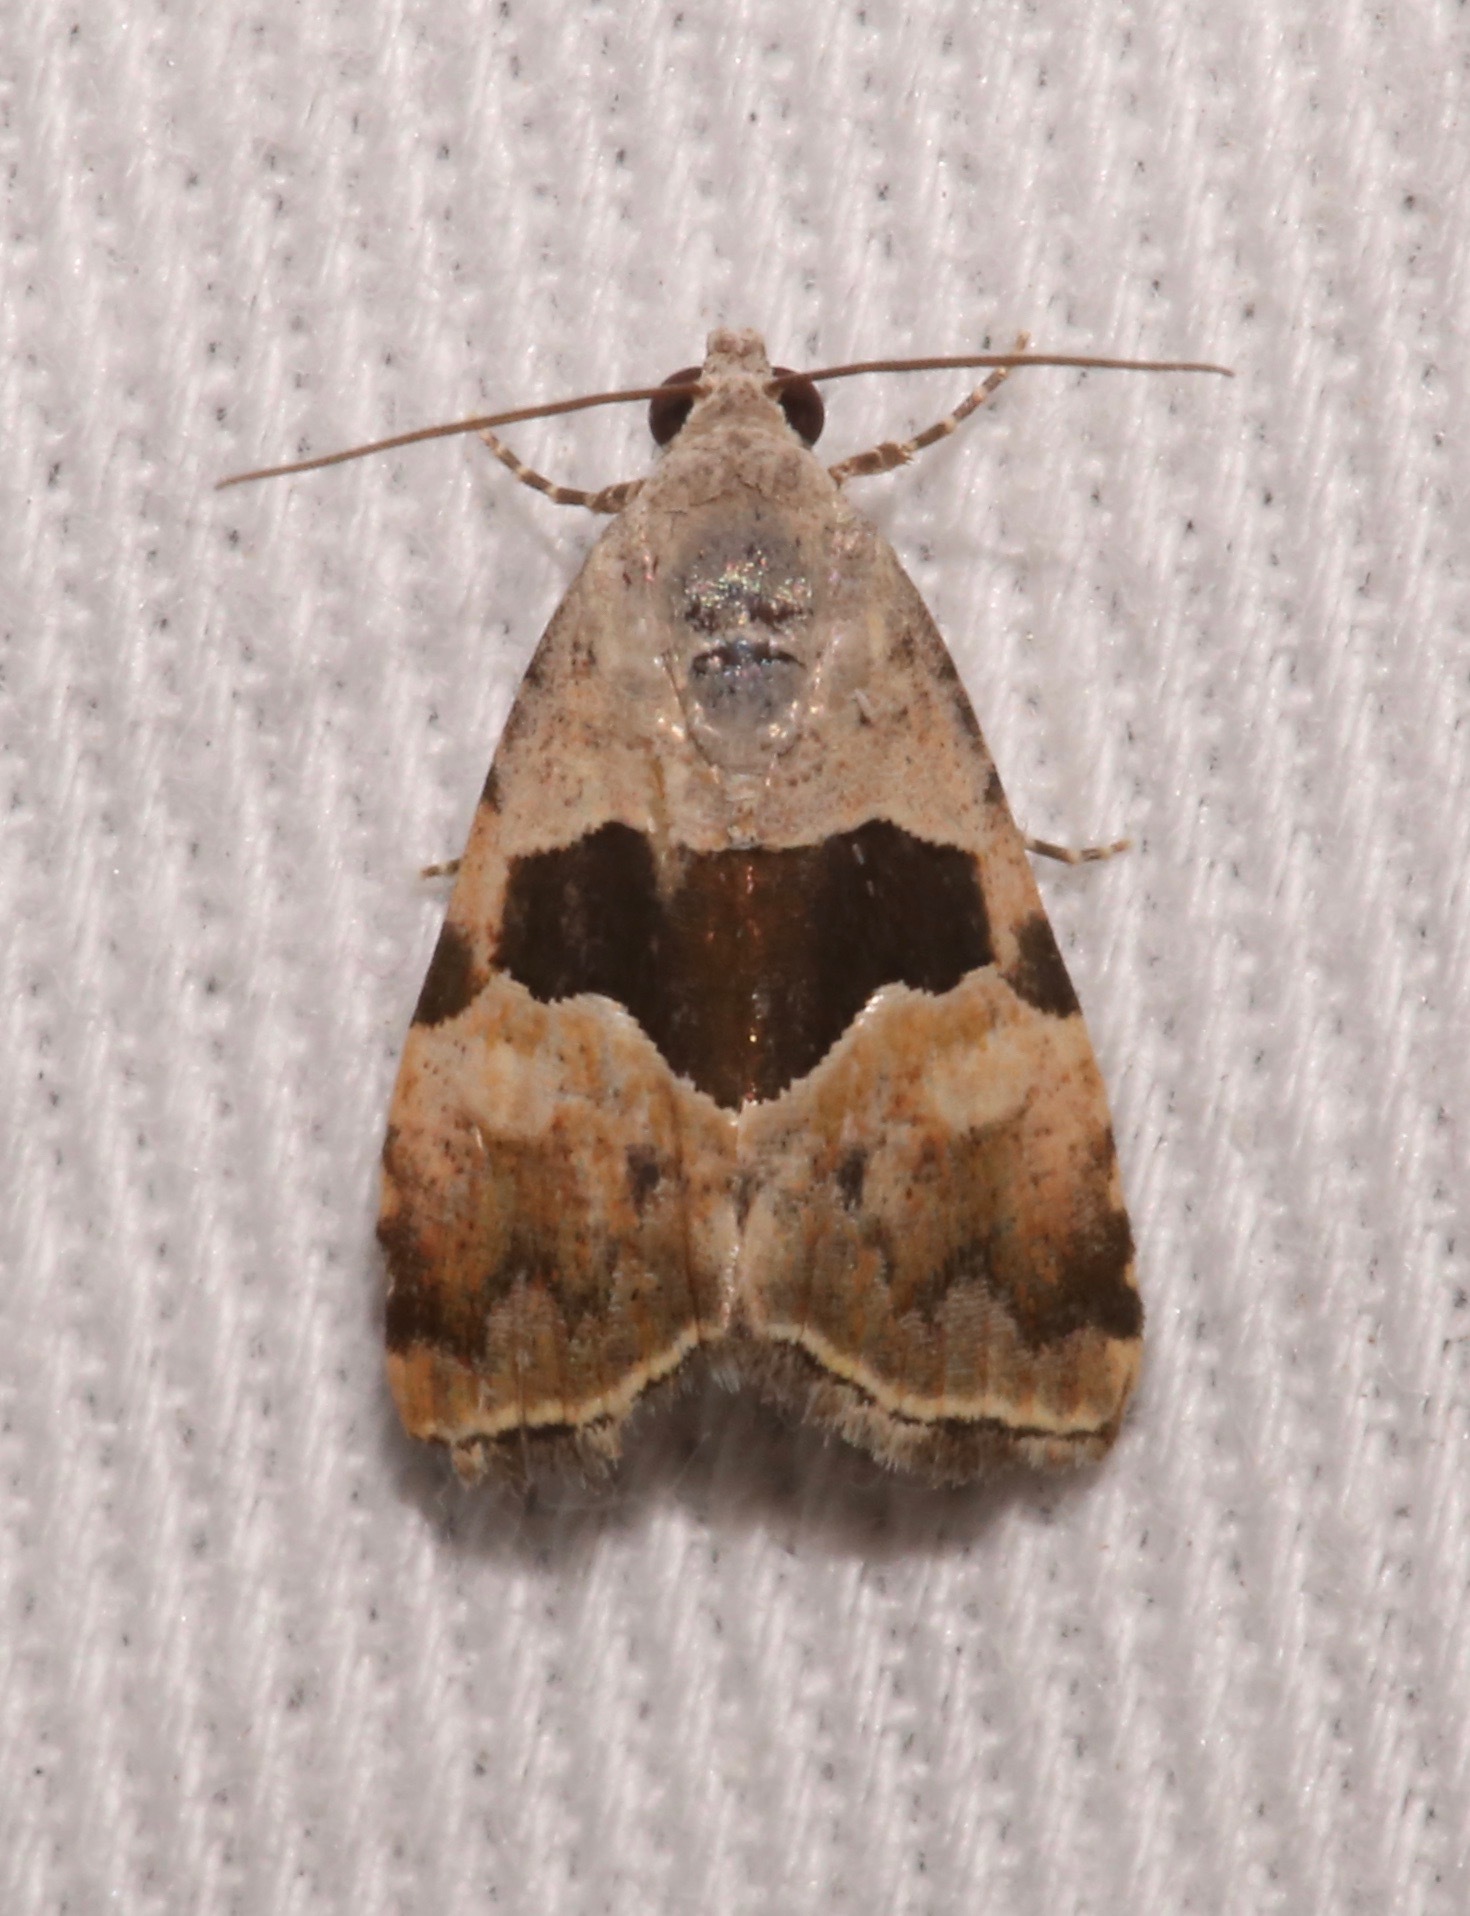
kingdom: Animalia
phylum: Arthropoda
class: Insecta
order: Lepidoptera
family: Noctuidae
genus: Cobubatha
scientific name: Cobubatha lixiva
